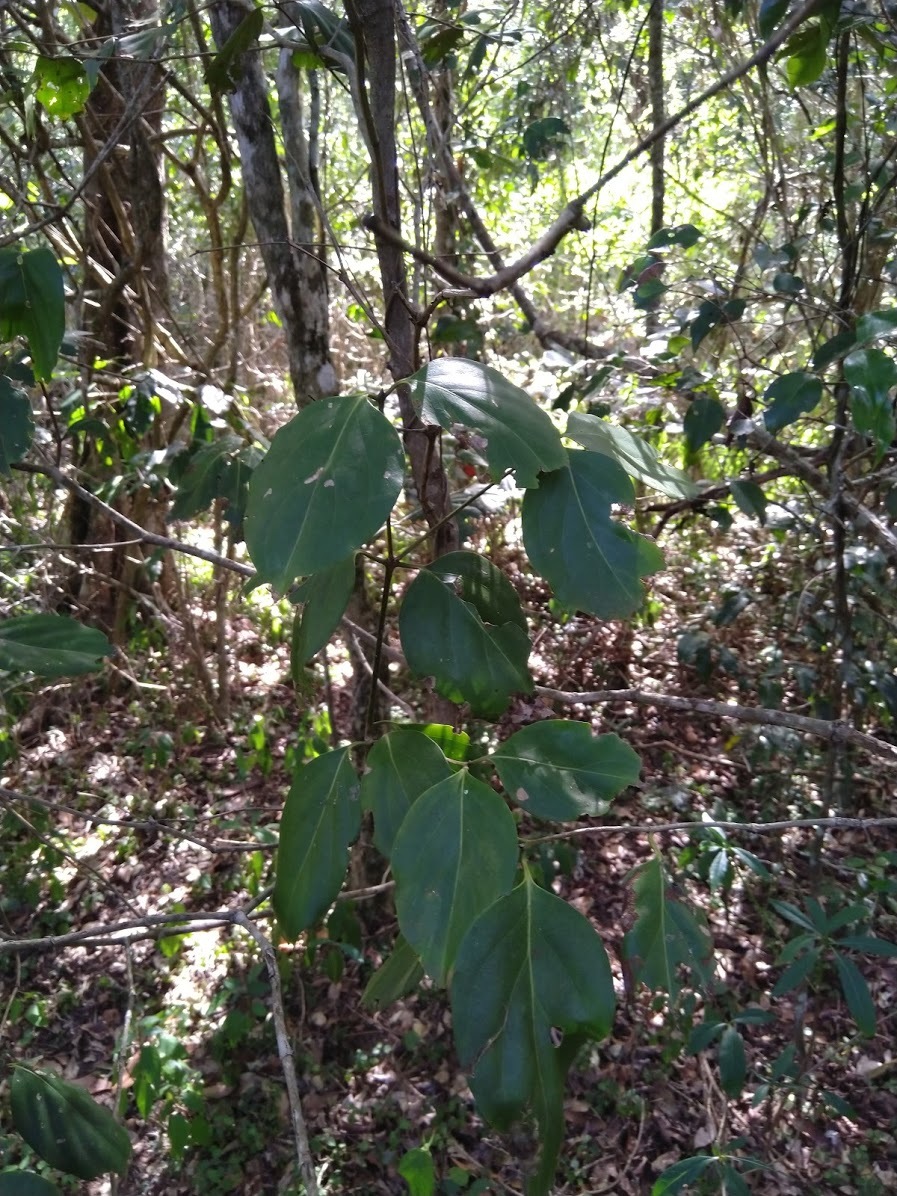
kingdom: Plantae
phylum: Tracheophyta
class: Magnoliopsida
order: Gentianales
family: Rubiaceae
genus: Psydrax
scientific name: Psydrax lamprophyllus
